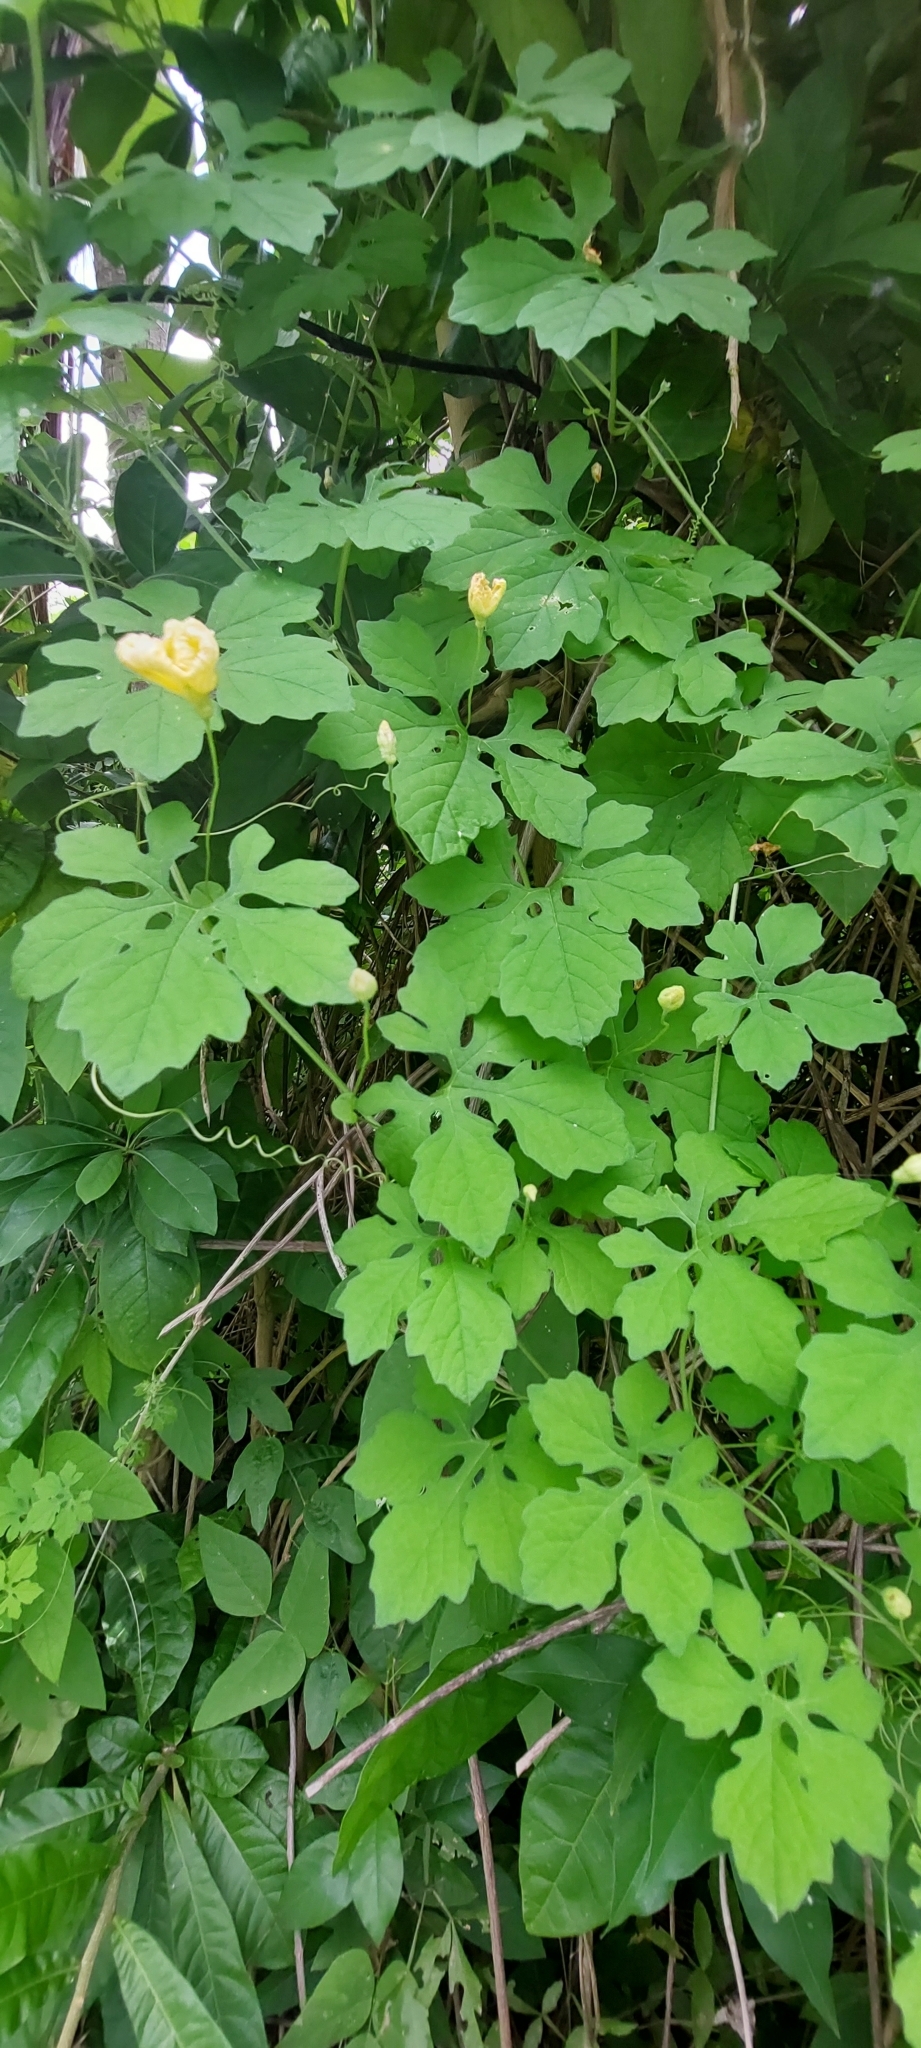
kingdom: Plantae
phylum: Tracheophyta
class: Magnoliopsida
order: Cucurbitales
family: Cucurbitaceae
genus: Momordica
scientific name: Momordica charantia
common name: Balsampear
